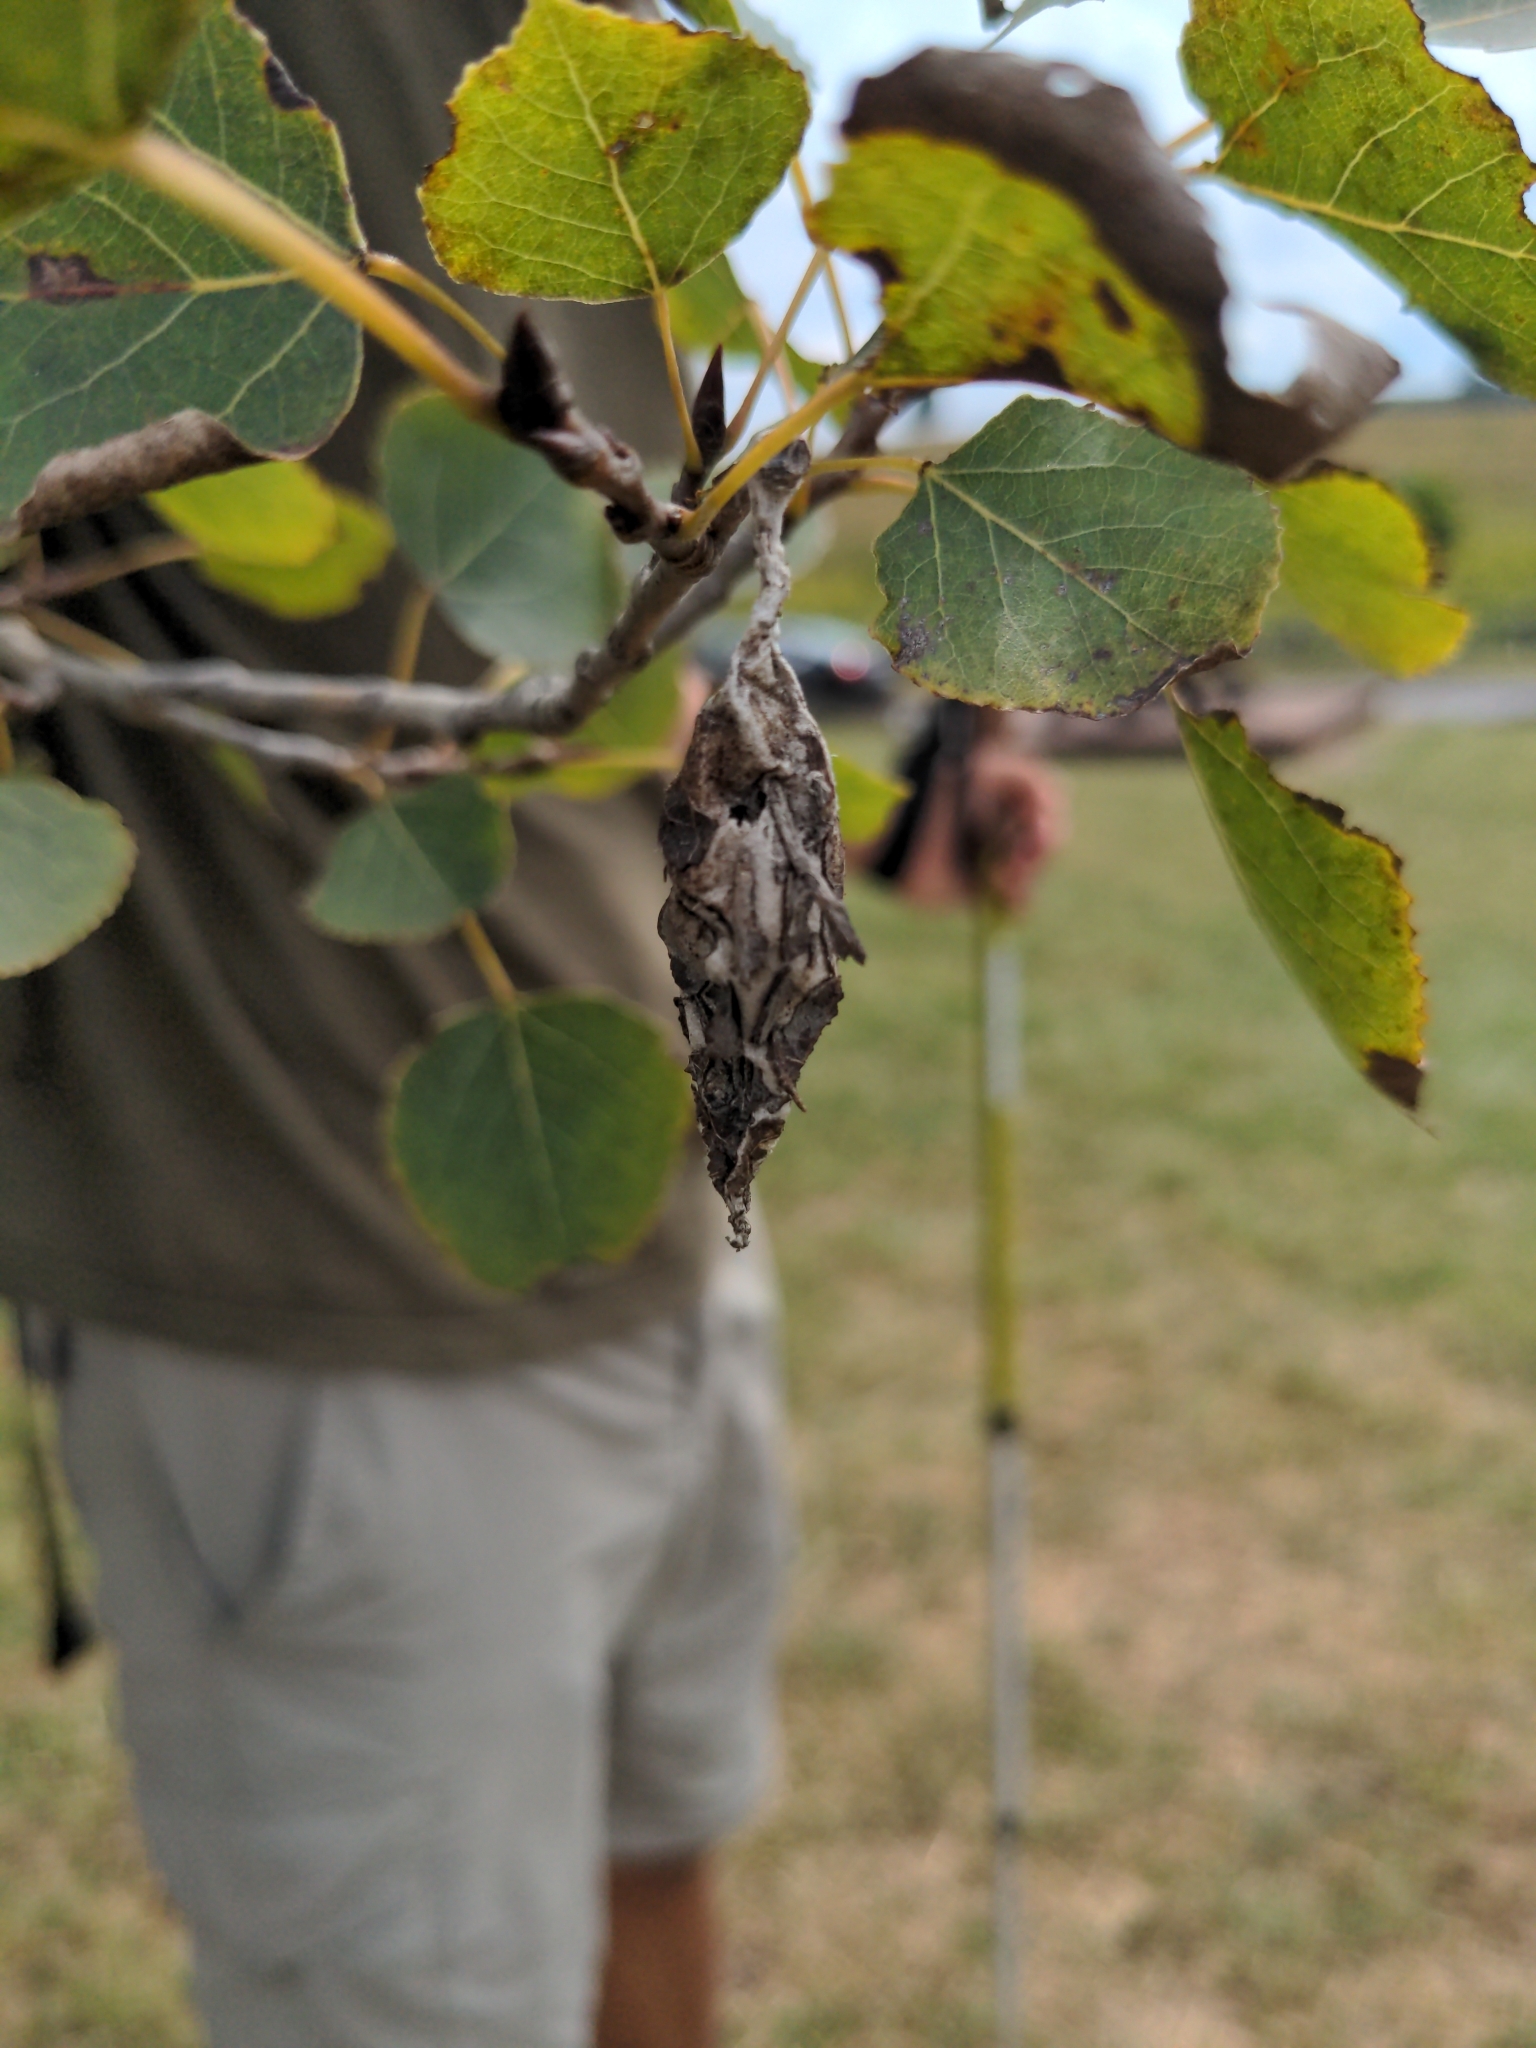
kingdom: Animalia
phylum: Arthropoda
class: Insecta
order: Lepidoptera
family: Psychidae
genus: Thyridopteryx
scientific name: Thyridopteryx ephemeraeformis
